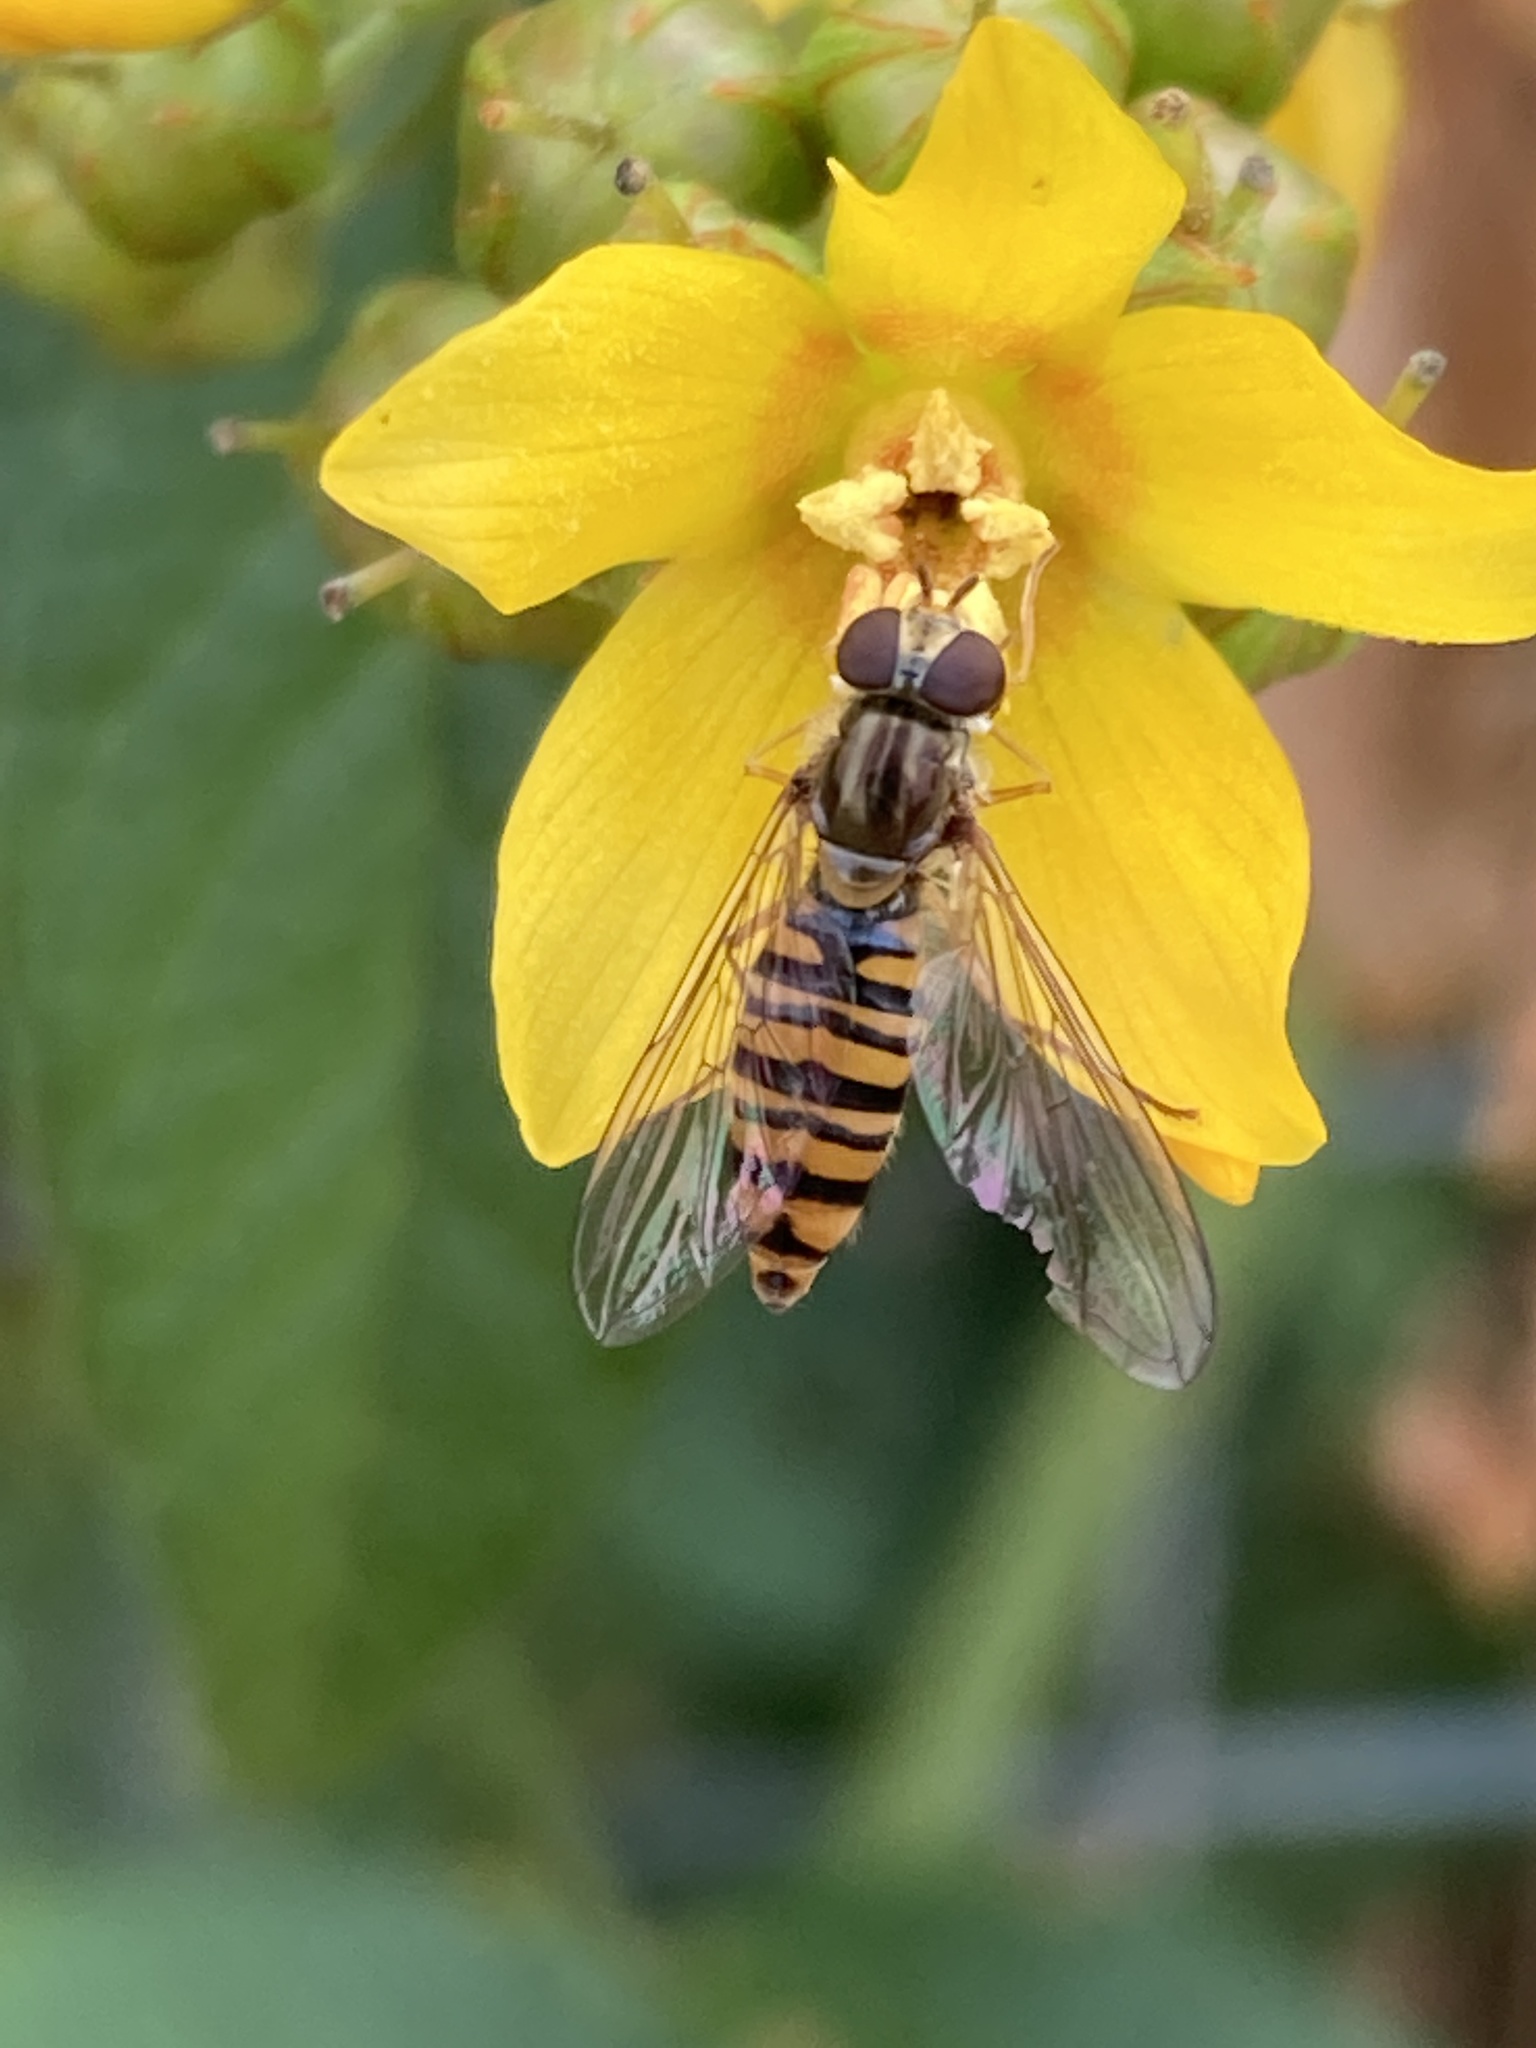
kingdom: Animalia
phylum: Arthropoda
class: Insecta
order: Diptera
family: Syrphidae
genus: Episyrphus
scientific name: Episyrphus balteatus
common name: Marmalade hoverfly
